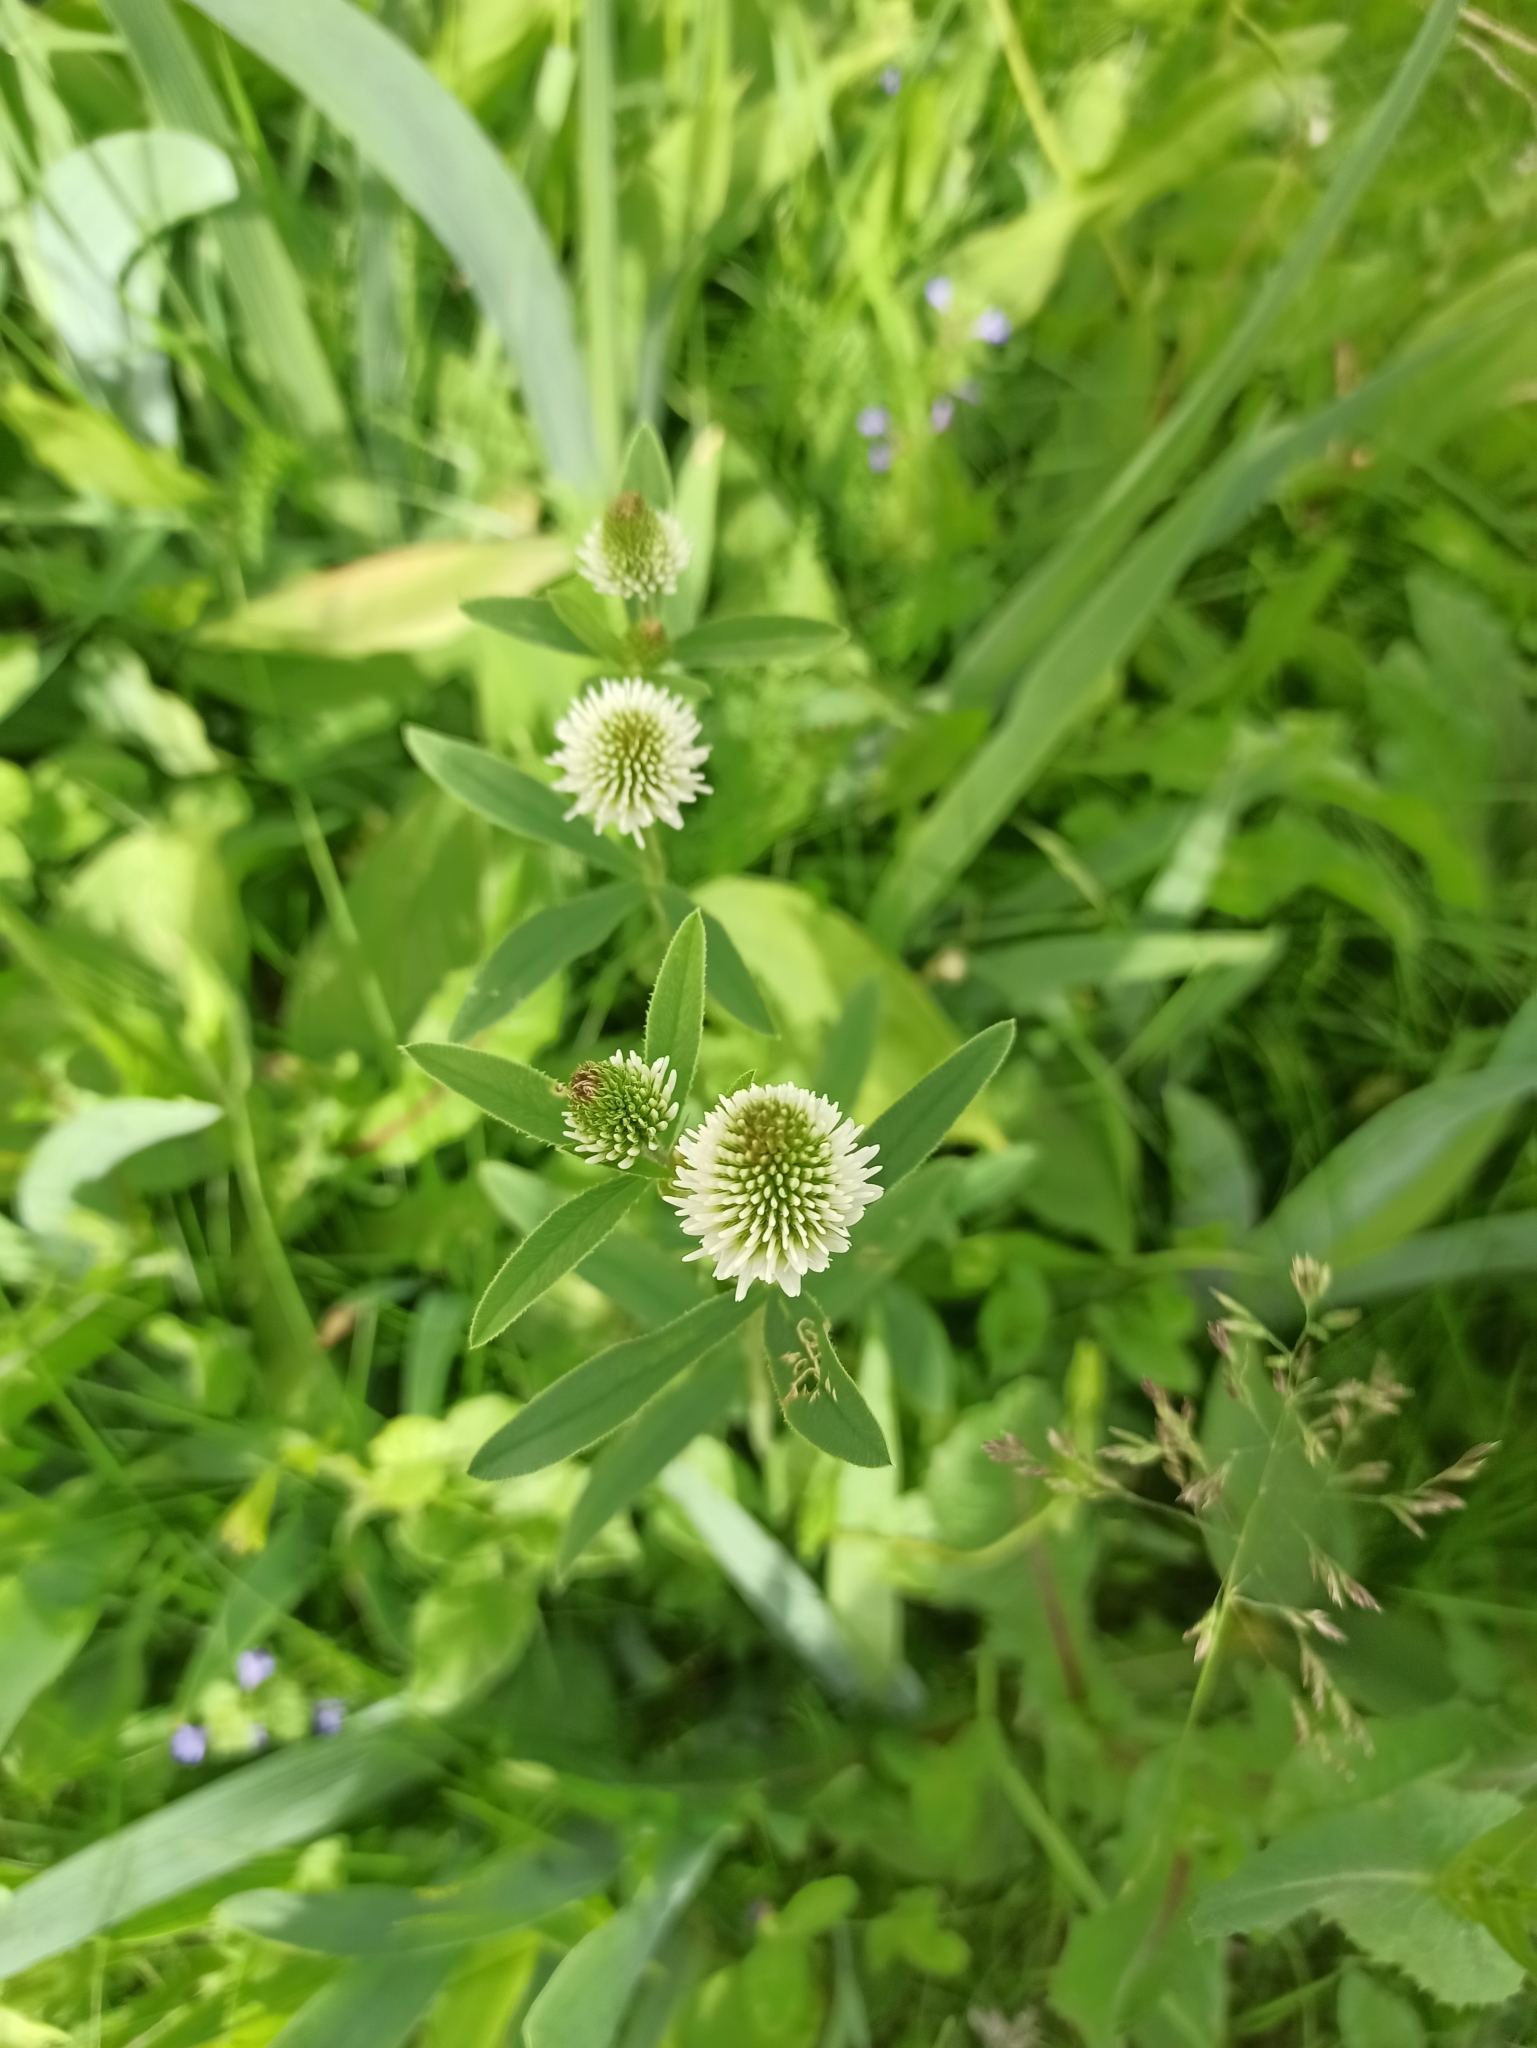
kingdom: Plantae
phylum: Tracheophyta
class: Magnoliopsida
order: Fabales
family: Fabaceae
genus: Trifolium
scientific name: Trifolium montanum
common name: Mountain clover
